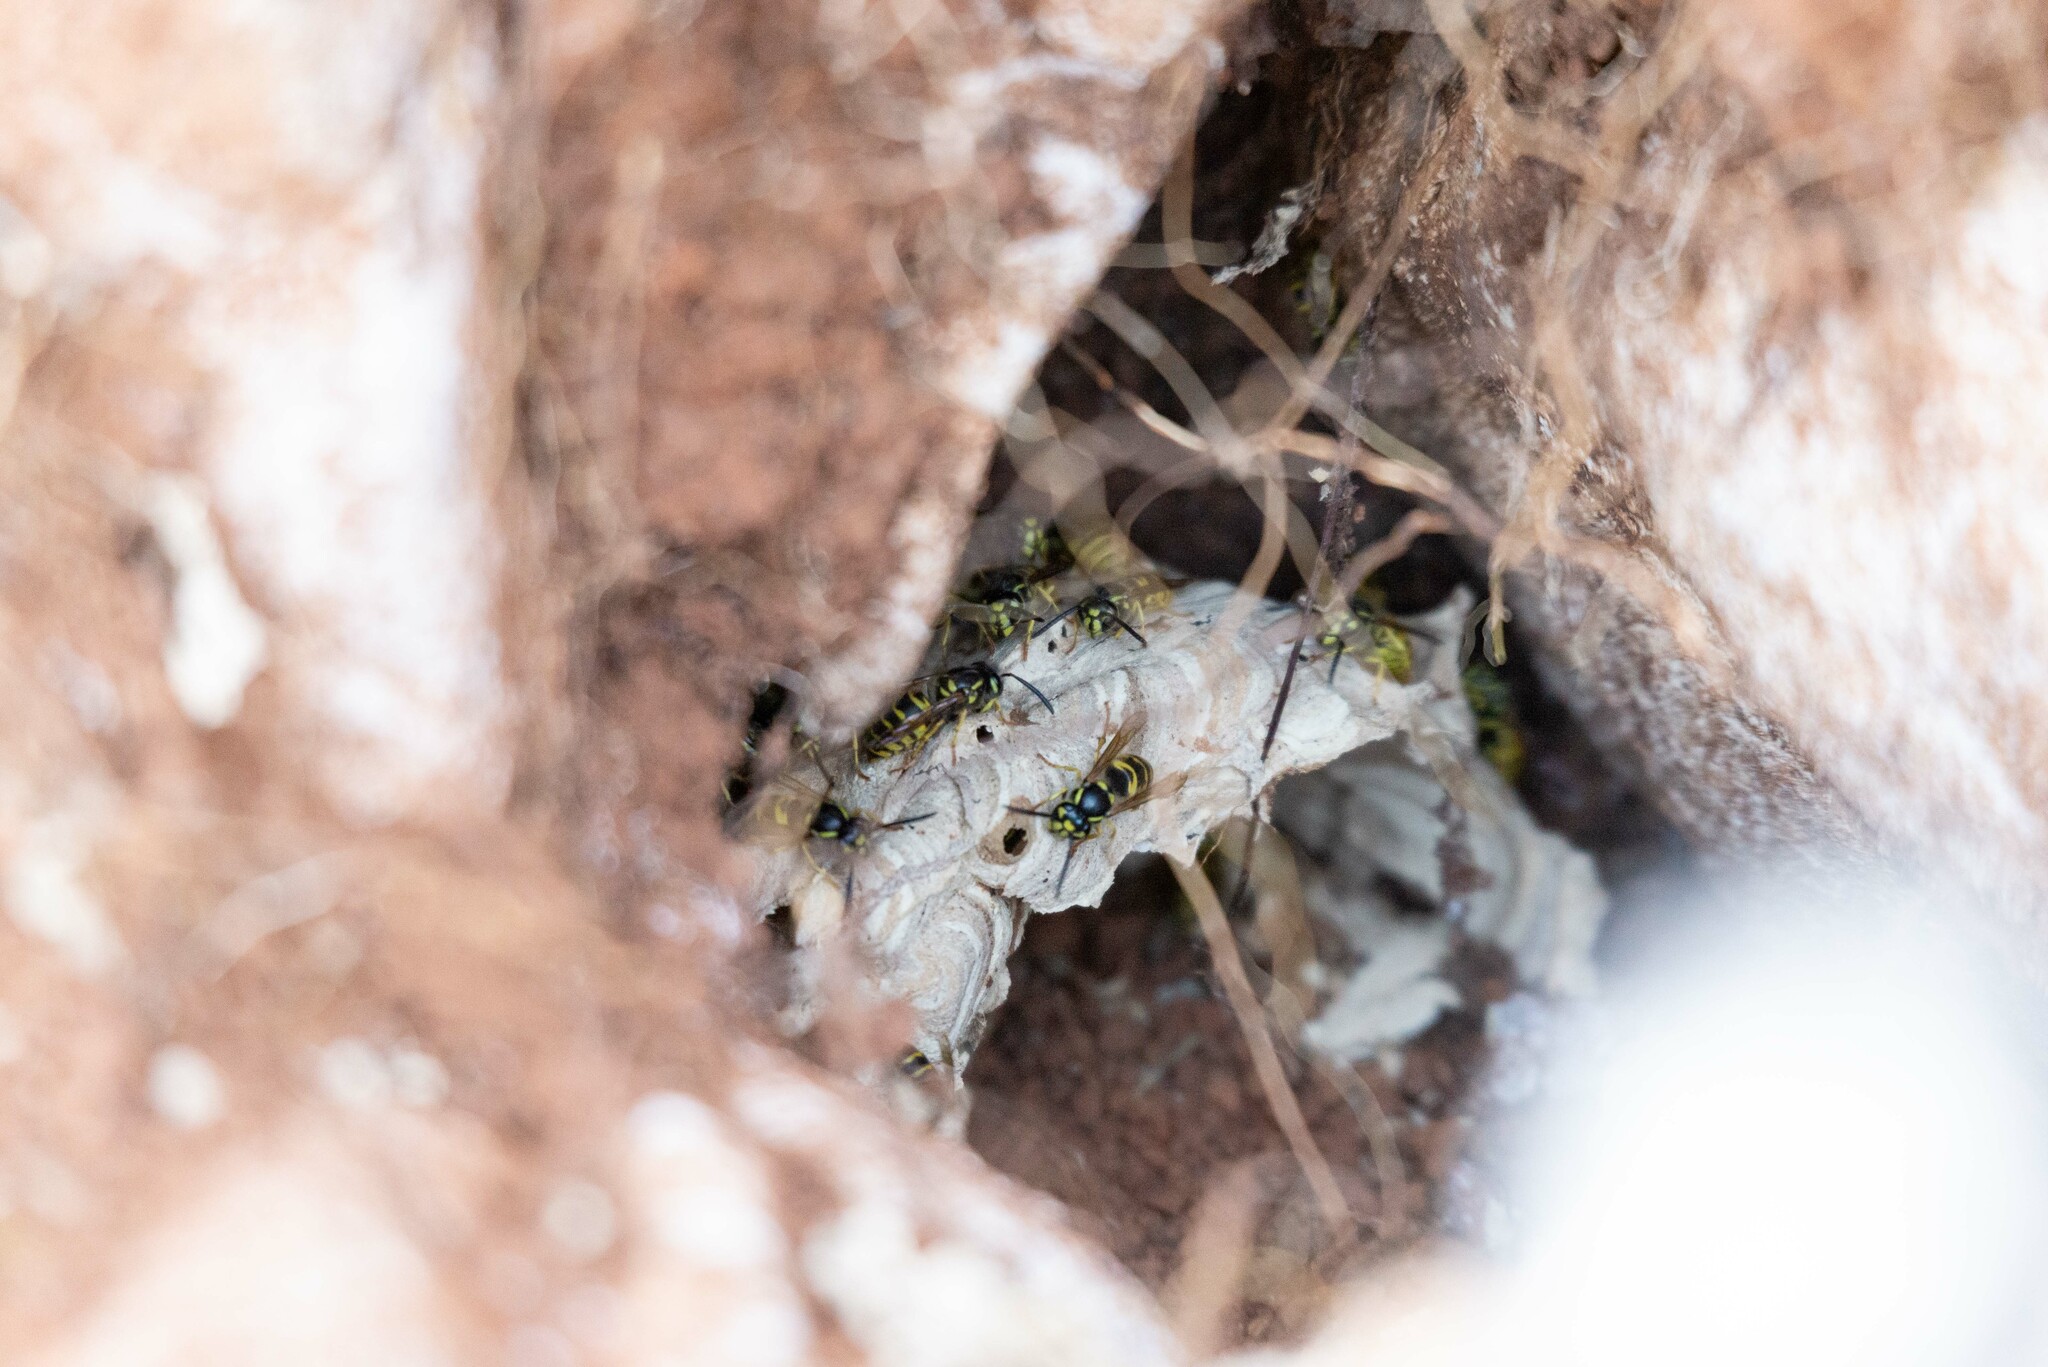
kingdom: Animalia
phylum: Arthropoda
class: Insecta
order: Hymenoptera
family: Vespidae
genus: Vespula
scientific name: Vespula vulgaris
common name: Common wasp
